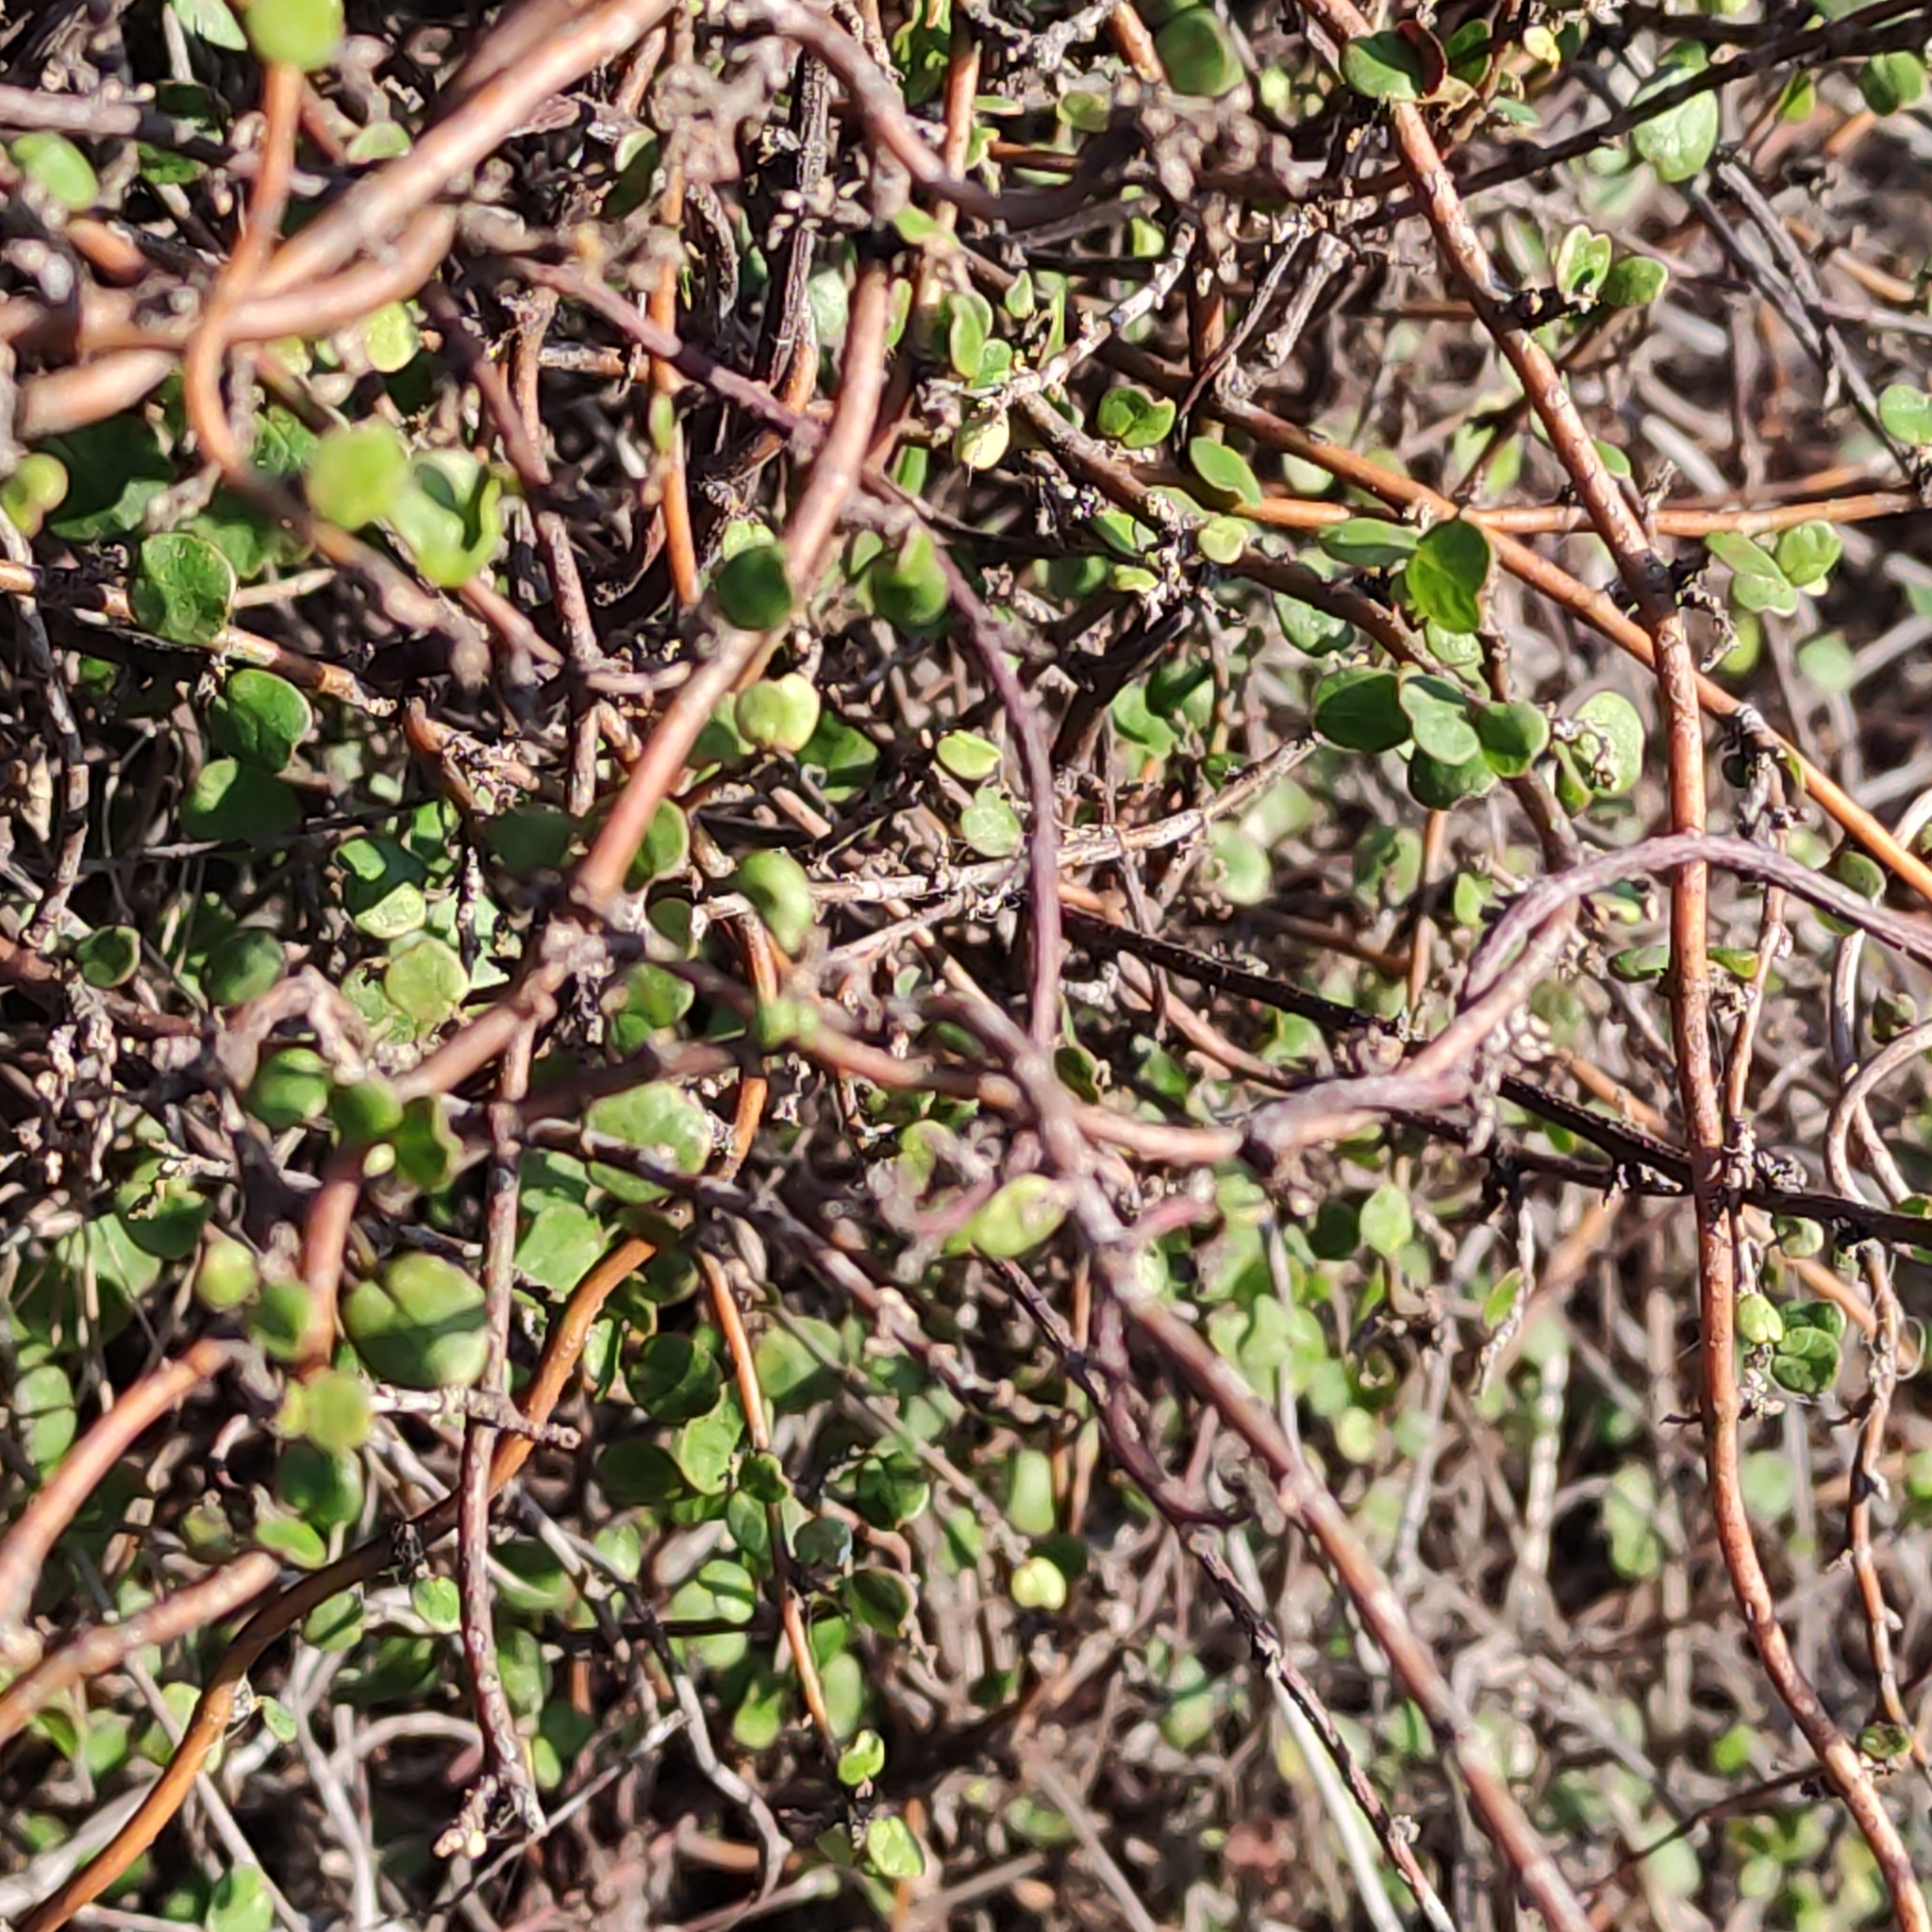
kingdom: Plantae
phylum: Tracheophyta
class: Magnoliopsida
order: Caryophyllales
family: Polygonaceae
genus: Muehlenbeckia
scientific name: Muehlenbeckia complexa
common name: Wireplant
